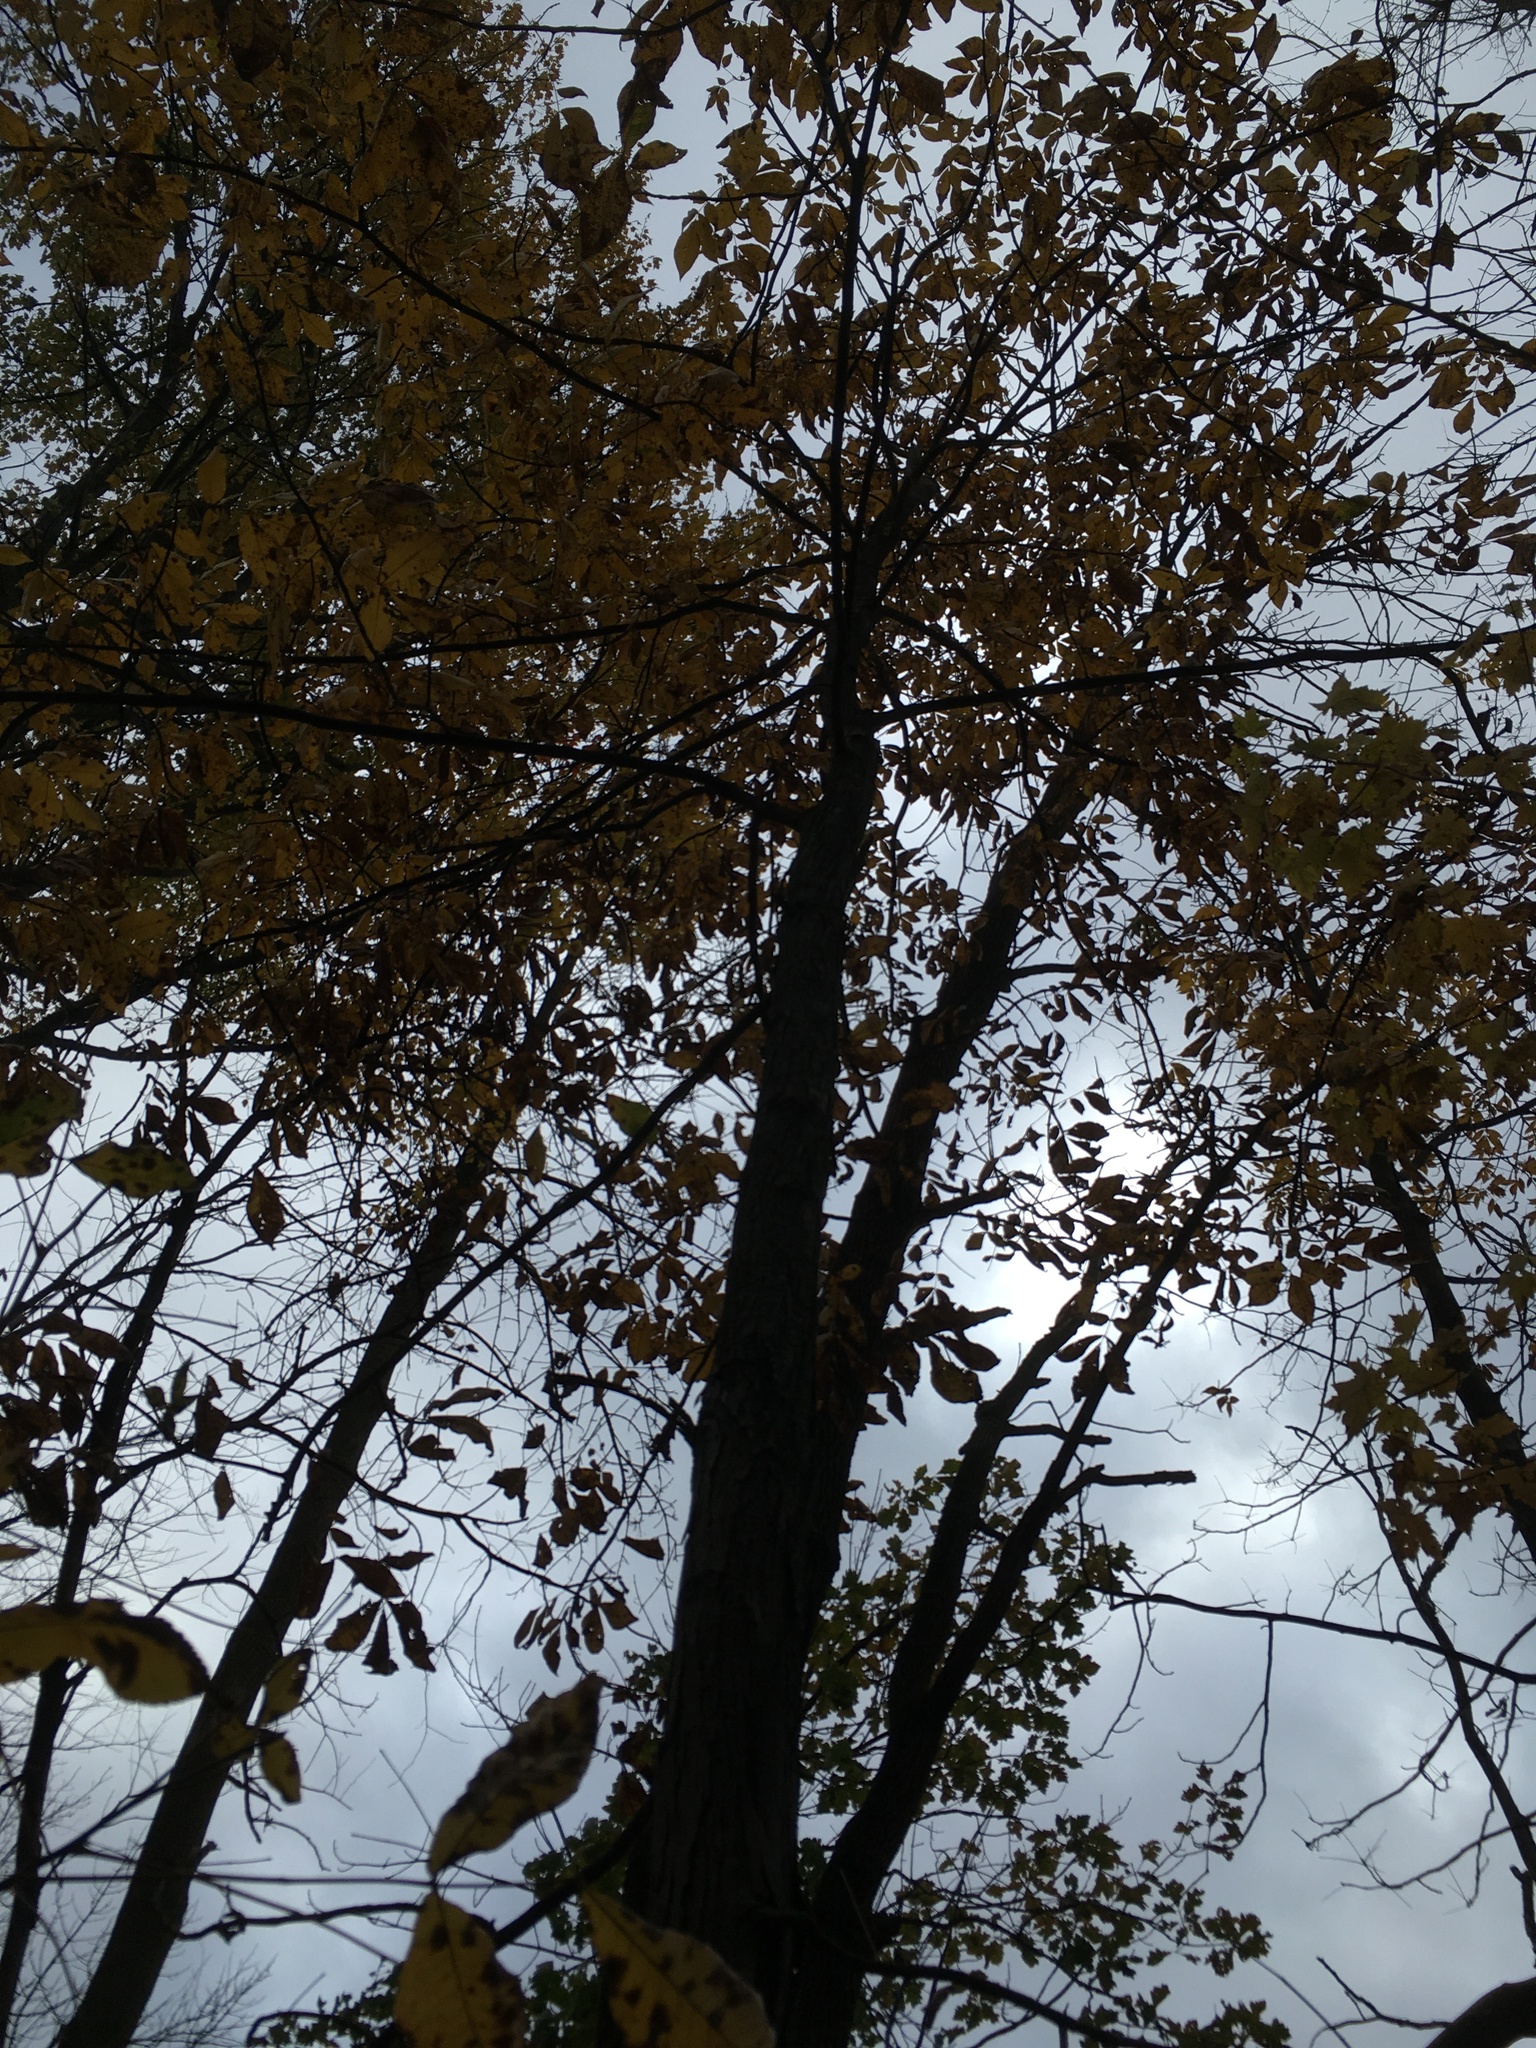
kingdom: Plantae
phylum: Tracheophyta
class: Magnoliopsida
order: Fagales
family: Juglandaceae
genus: Carya
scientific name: Carya ovata
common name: Shagbark hickory
